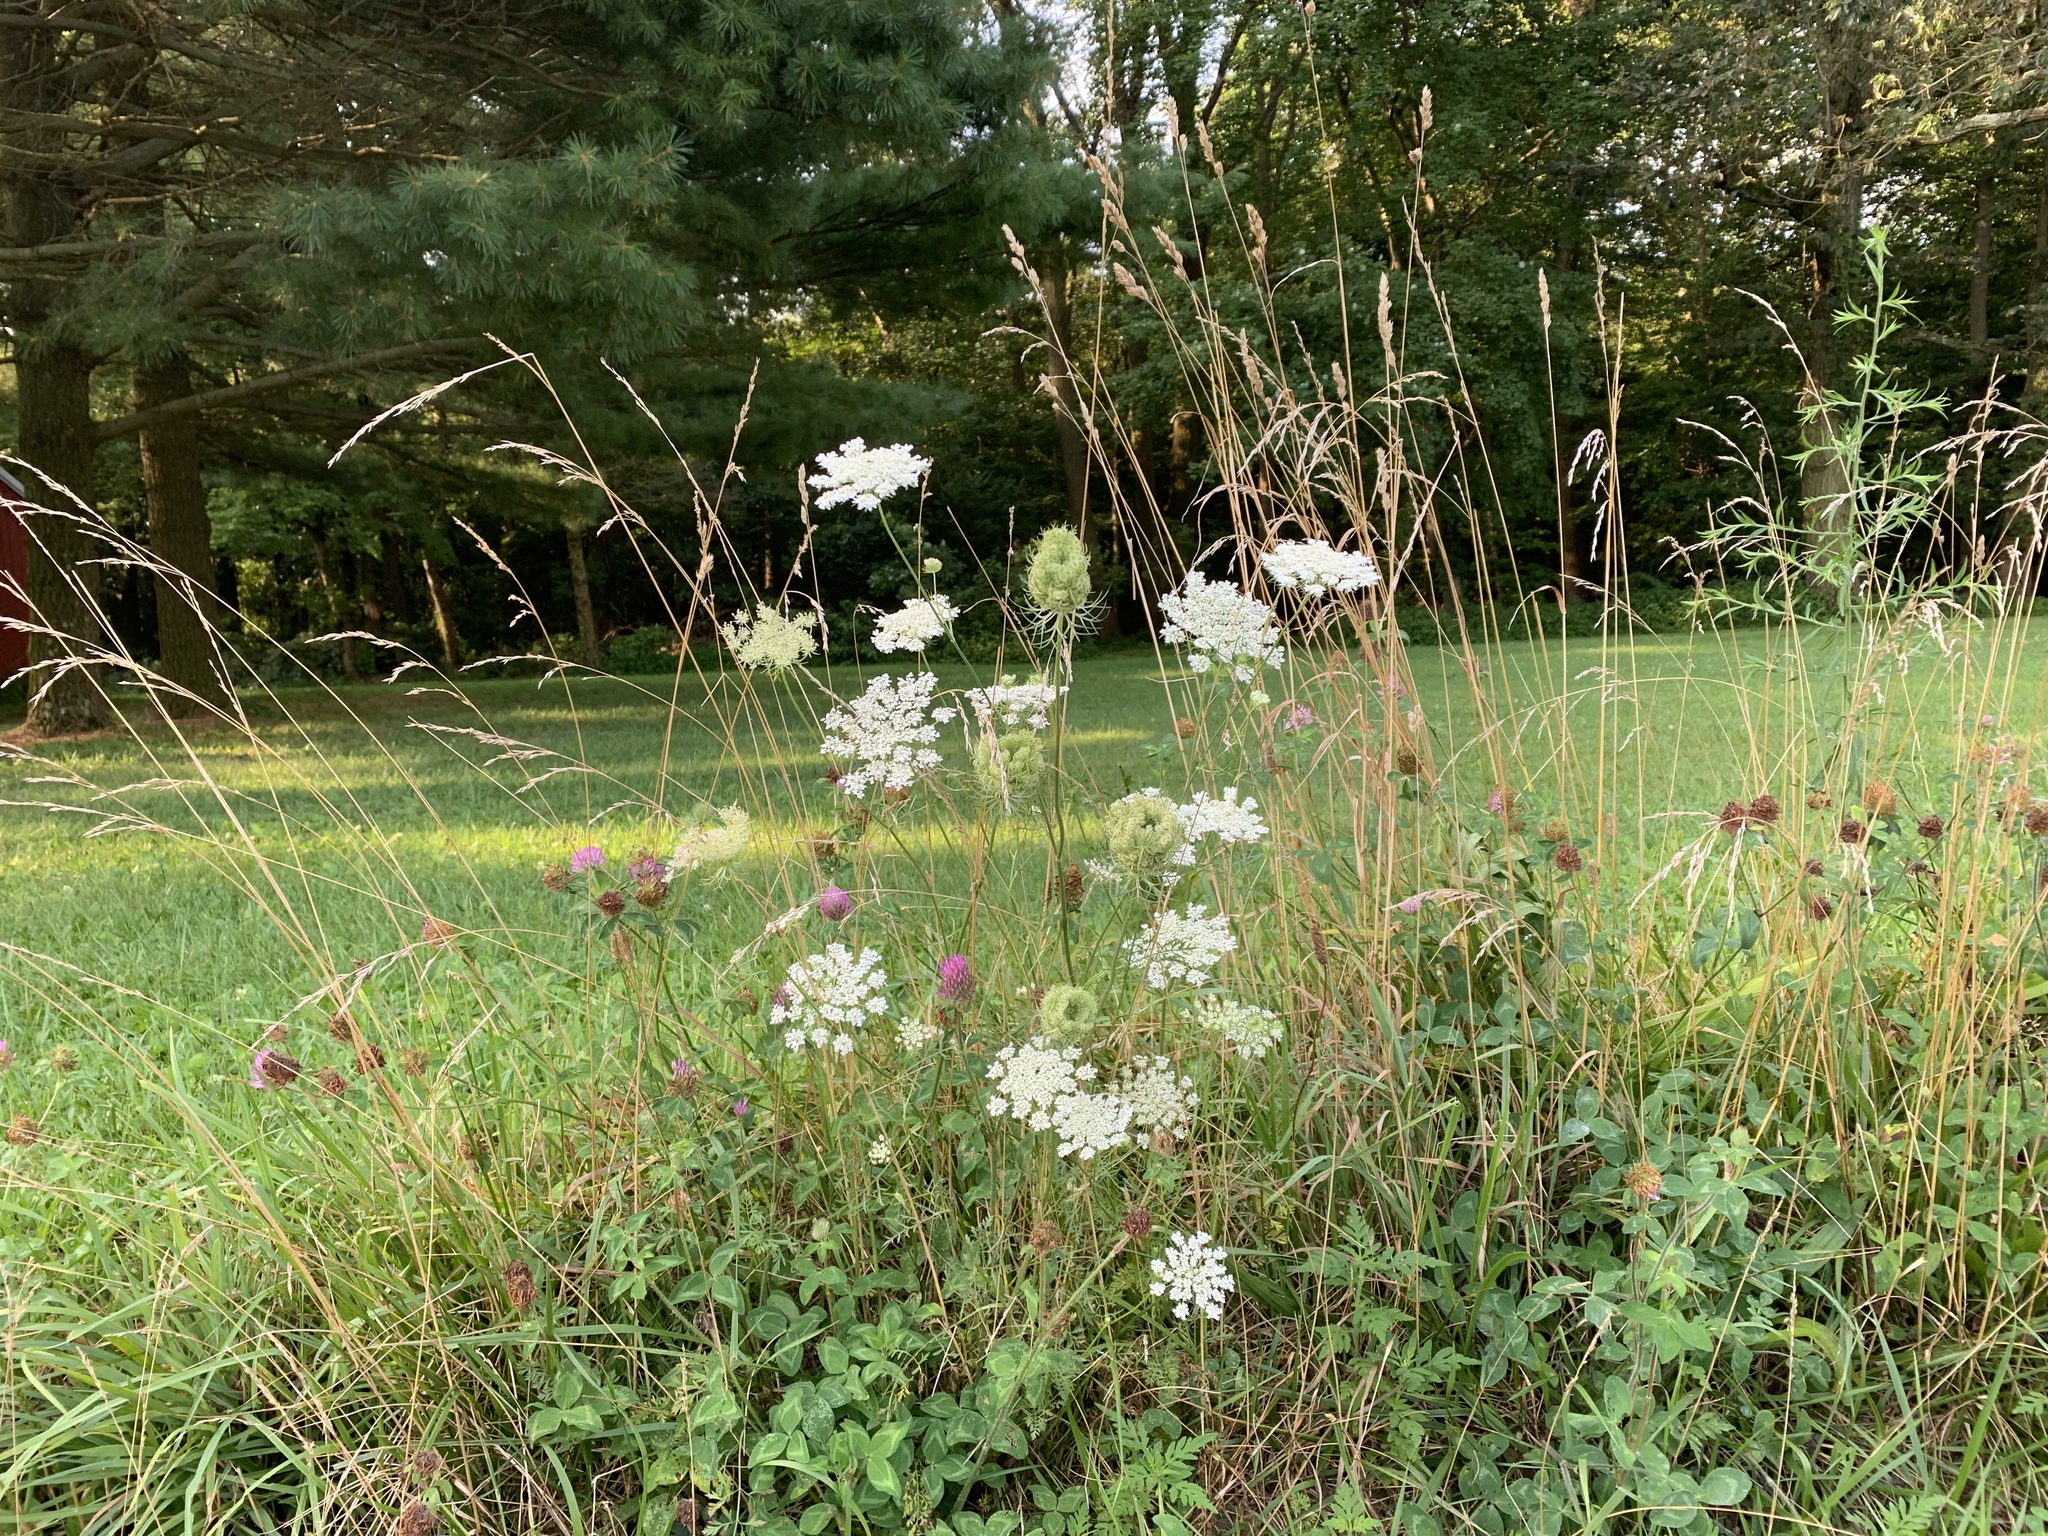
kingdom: Plantae
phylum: Tracheophyta
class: Magnoliopsida
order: Apiales
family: Apiaceae
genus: Daucus
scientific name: Daucus carota
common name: Wild carrot
